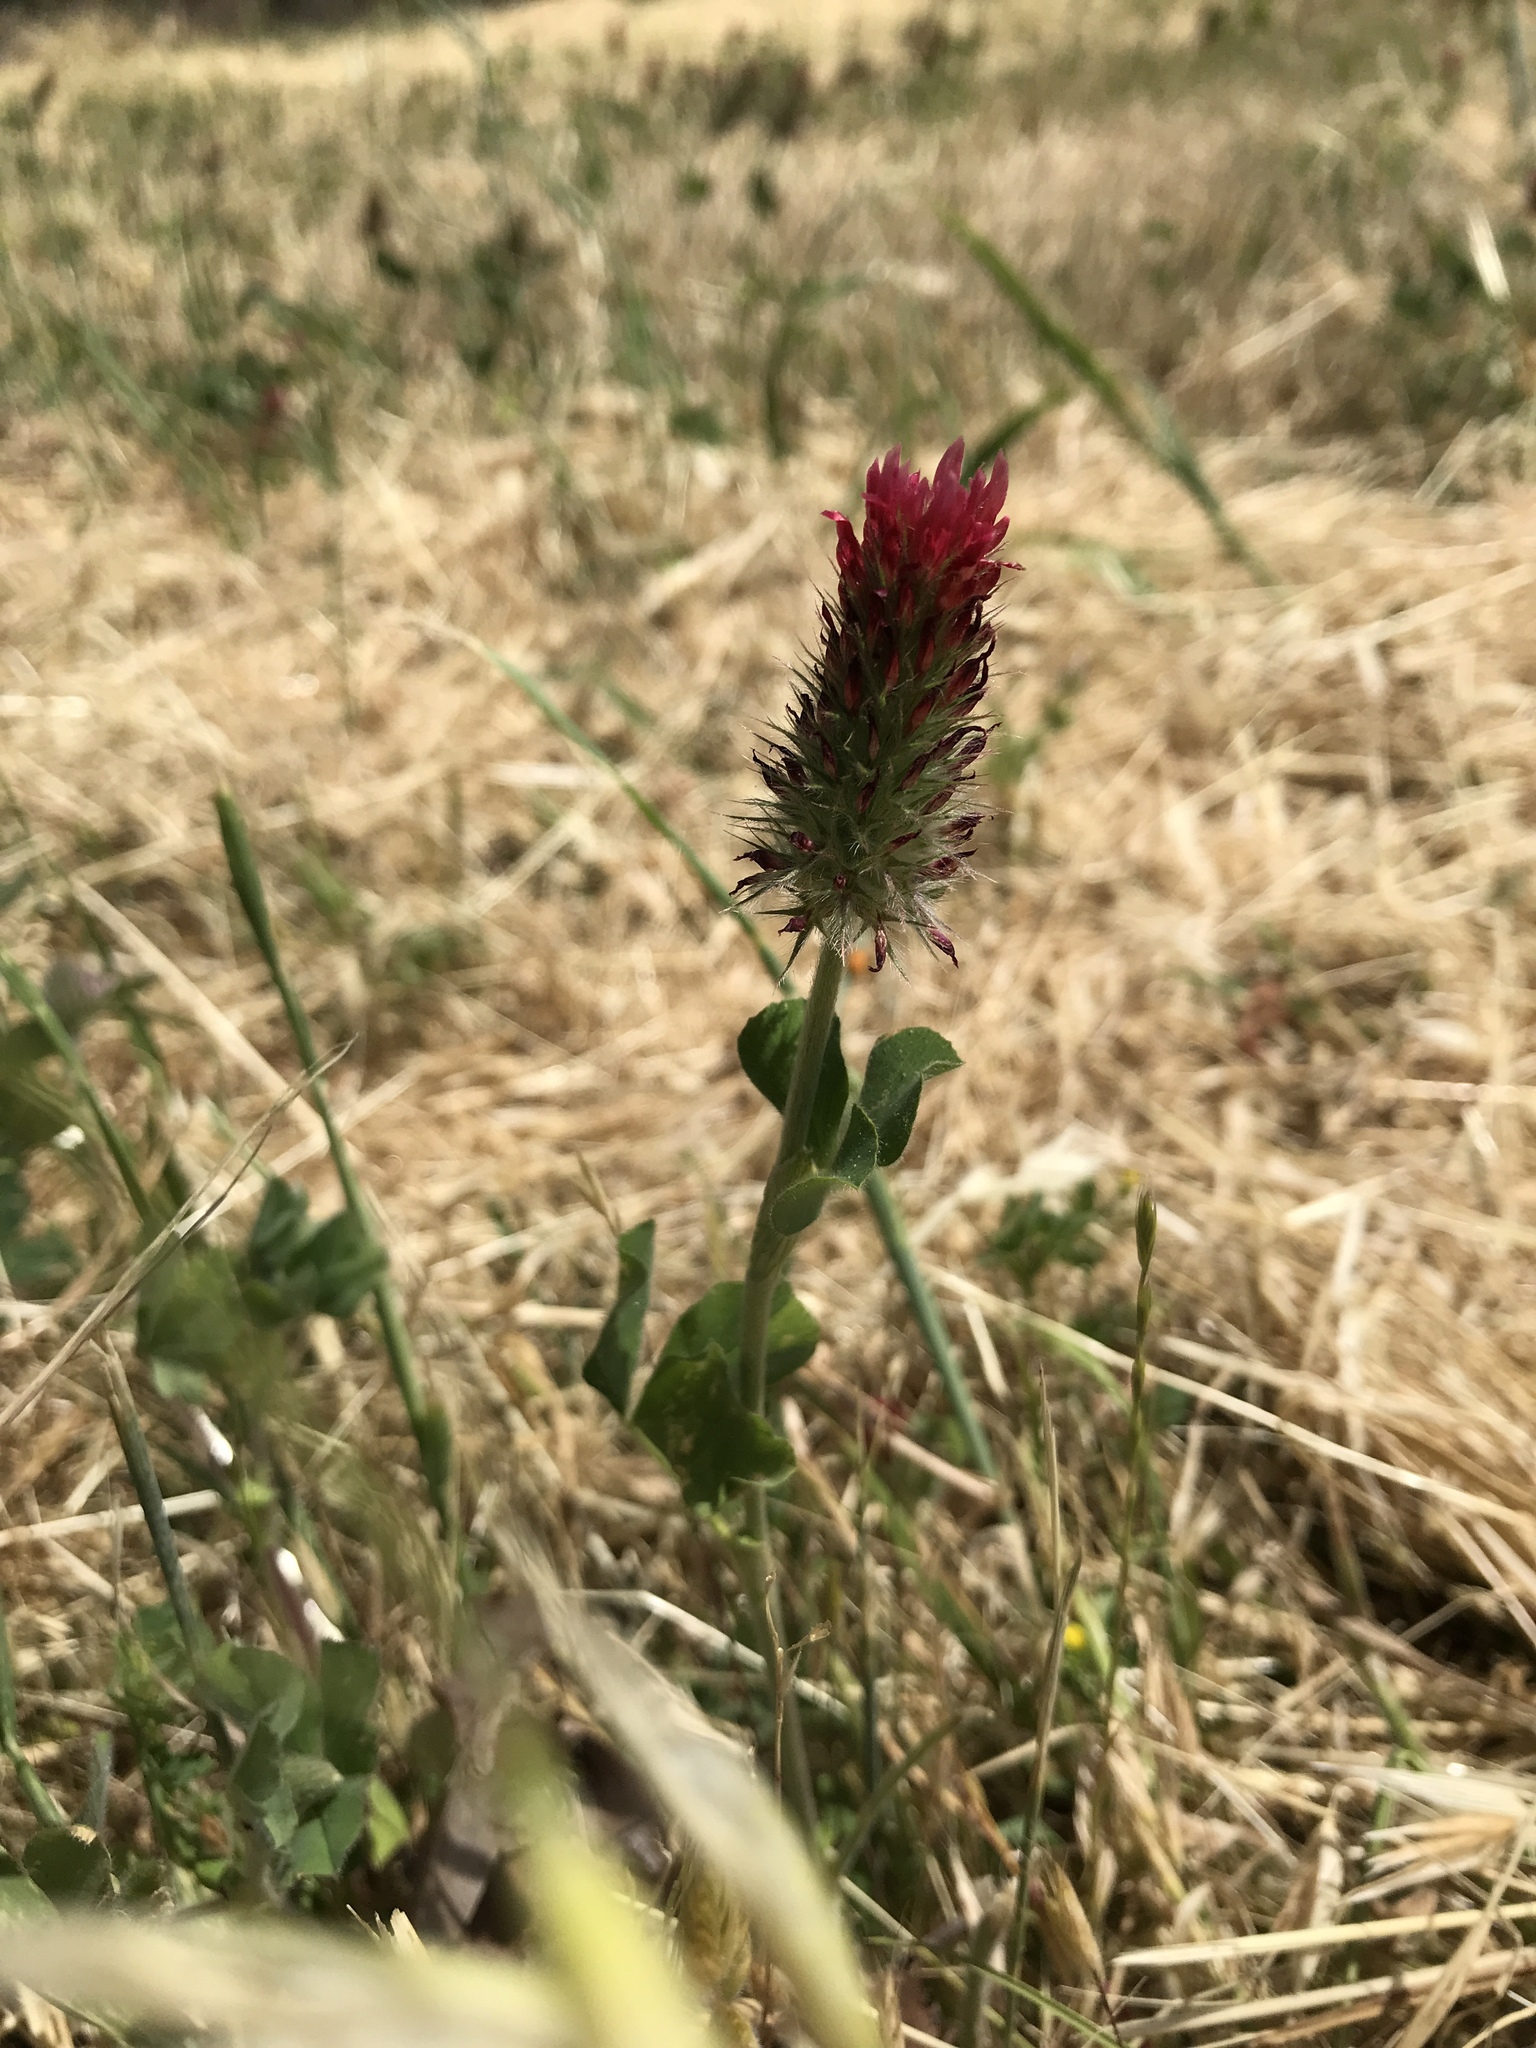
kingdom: Plantae
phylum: Tracheophyta
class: Magnoliopsida
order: Fabales
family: Fabaceae
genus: Trifolium
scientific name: Trifolium incarnatum
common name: Crimson clover
